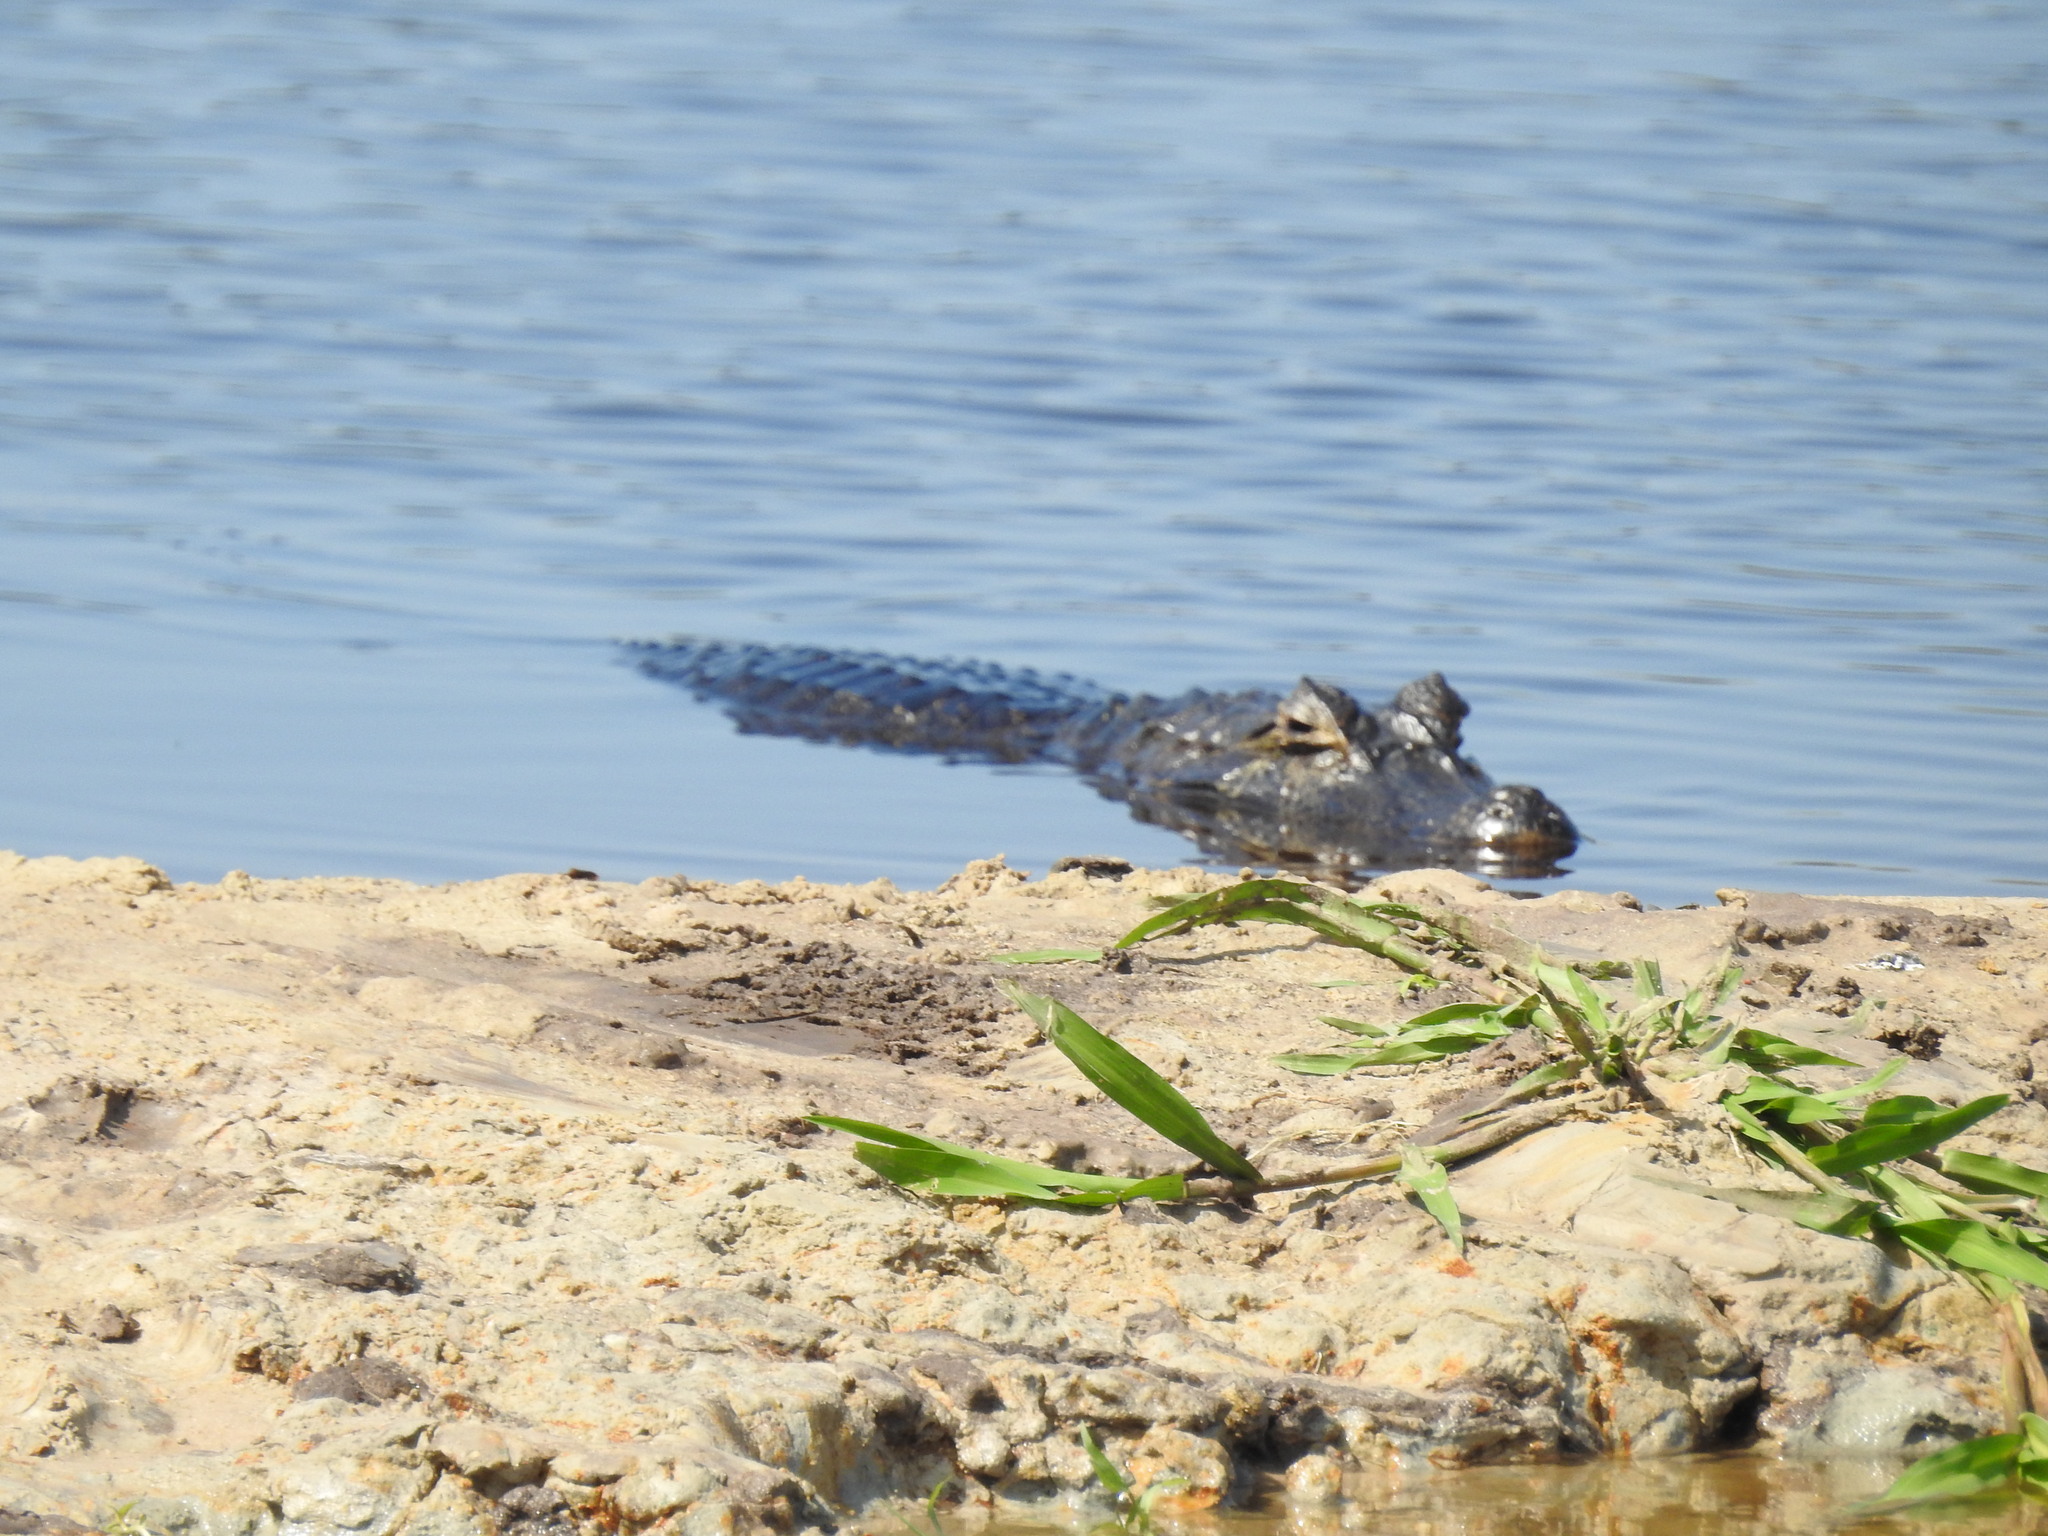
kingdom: Animalia
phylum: Chordata
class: Crocodylia
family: Alligatoridae
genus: Caiman
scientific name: Caiman yacare
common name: Yacare caiman
